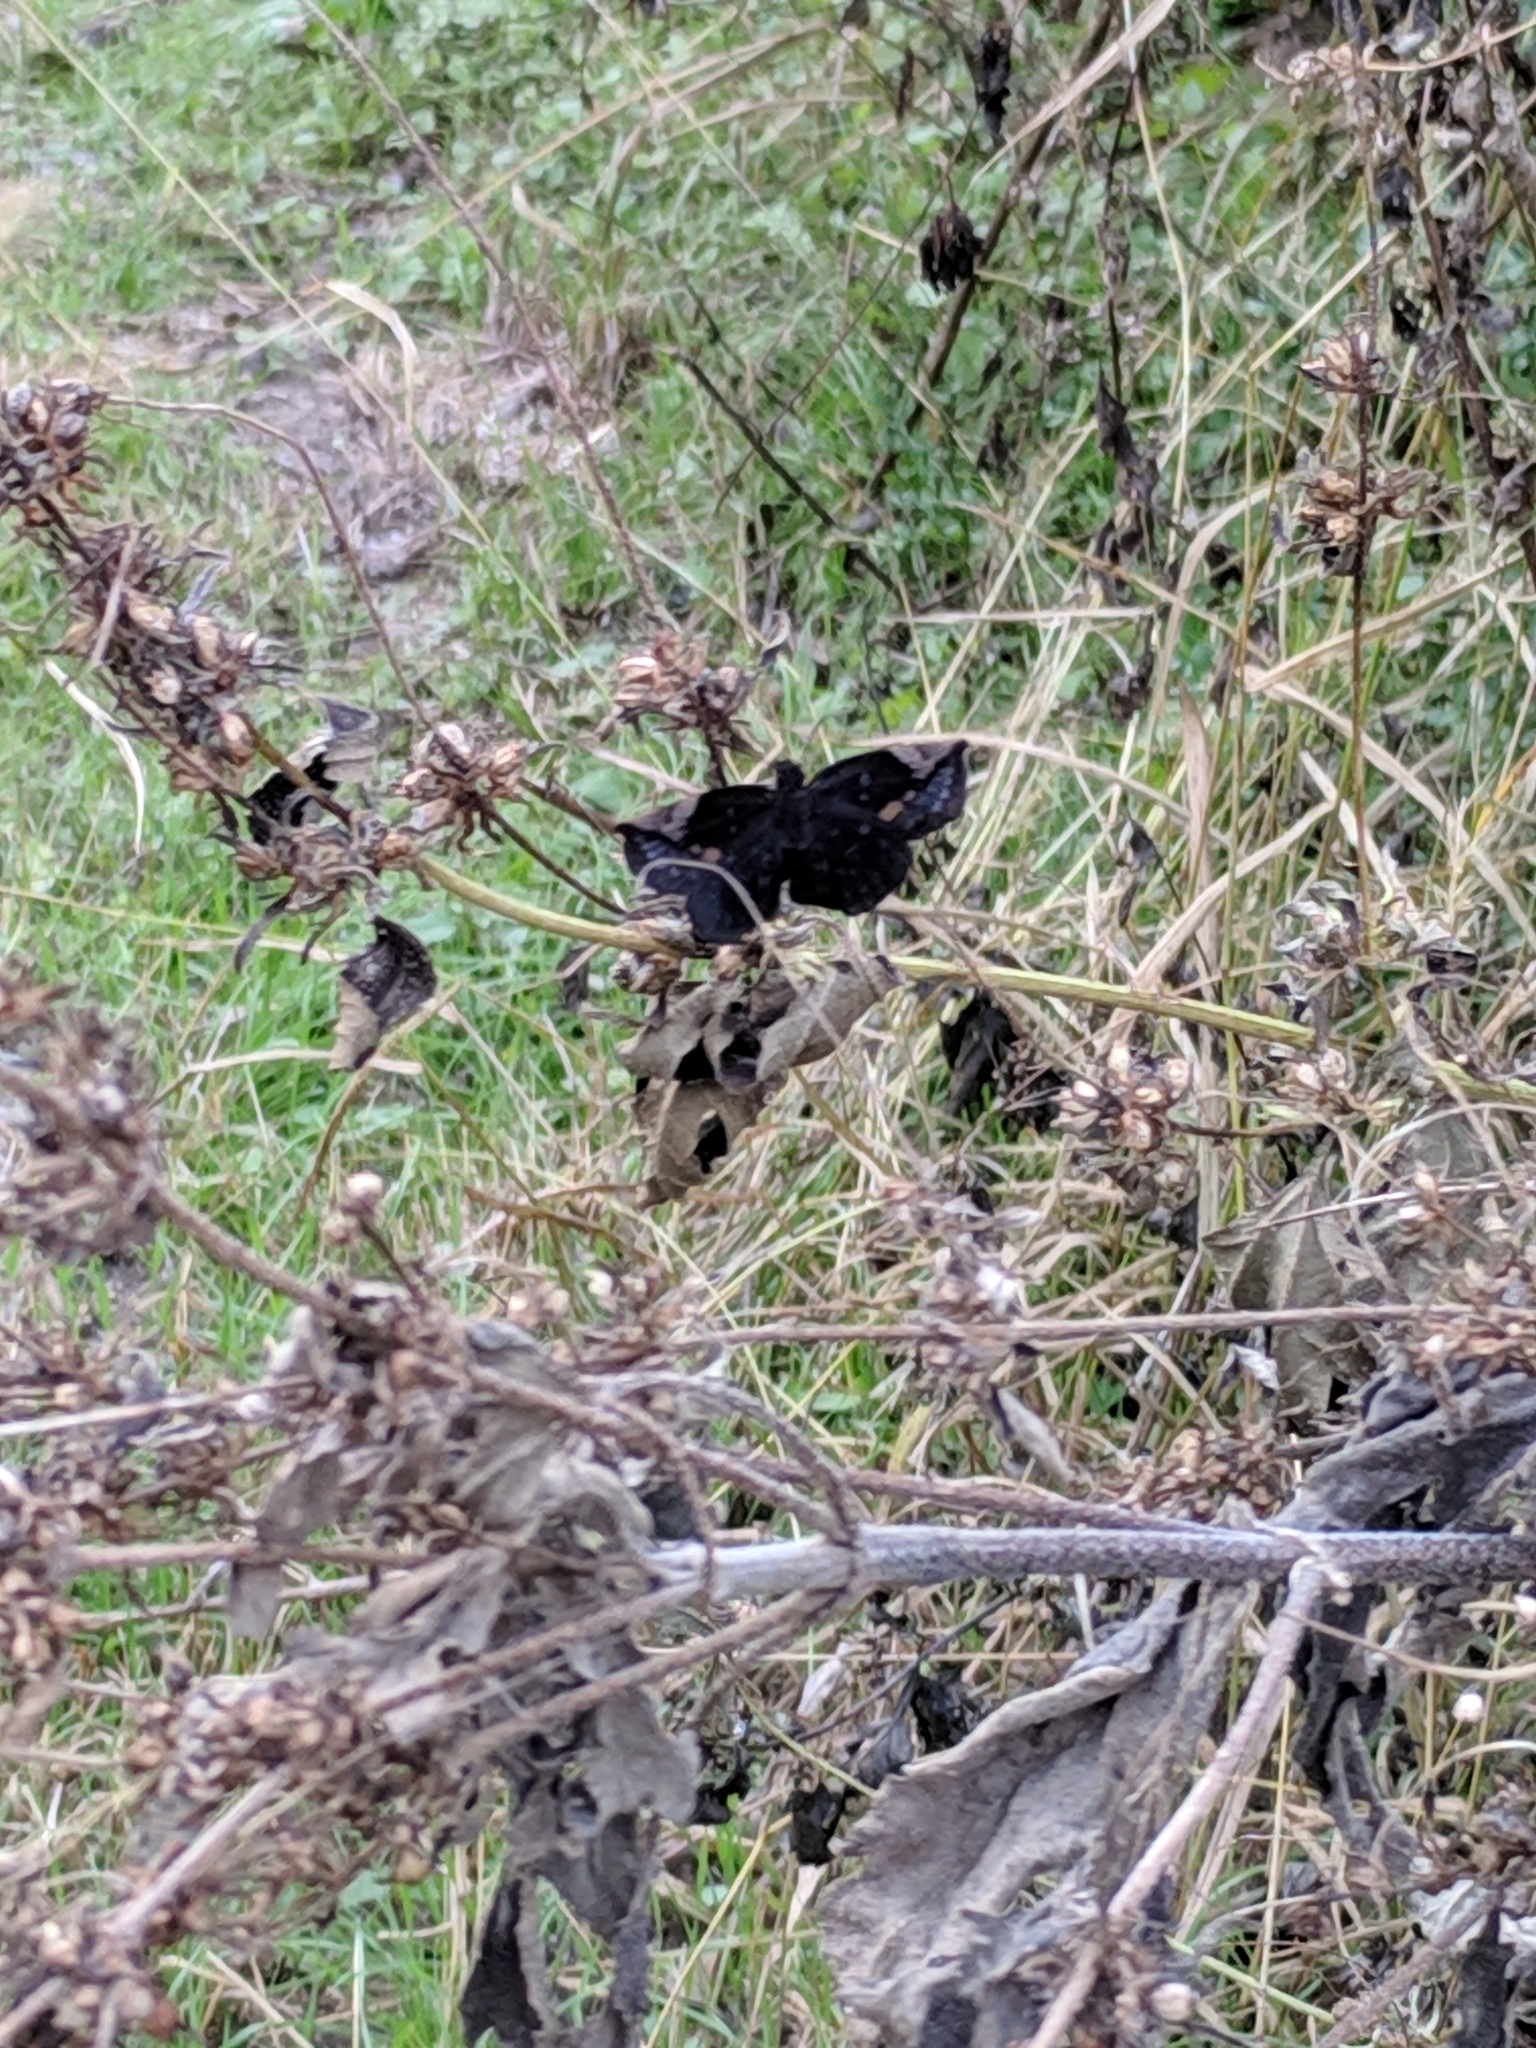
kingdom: Animalia
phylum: Arthropoda
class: Insecta
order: Lepidoptera
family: Hesperiidae
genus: Achlyodes
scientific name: Achlyodes thraso
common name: Sickle-winged skipper
